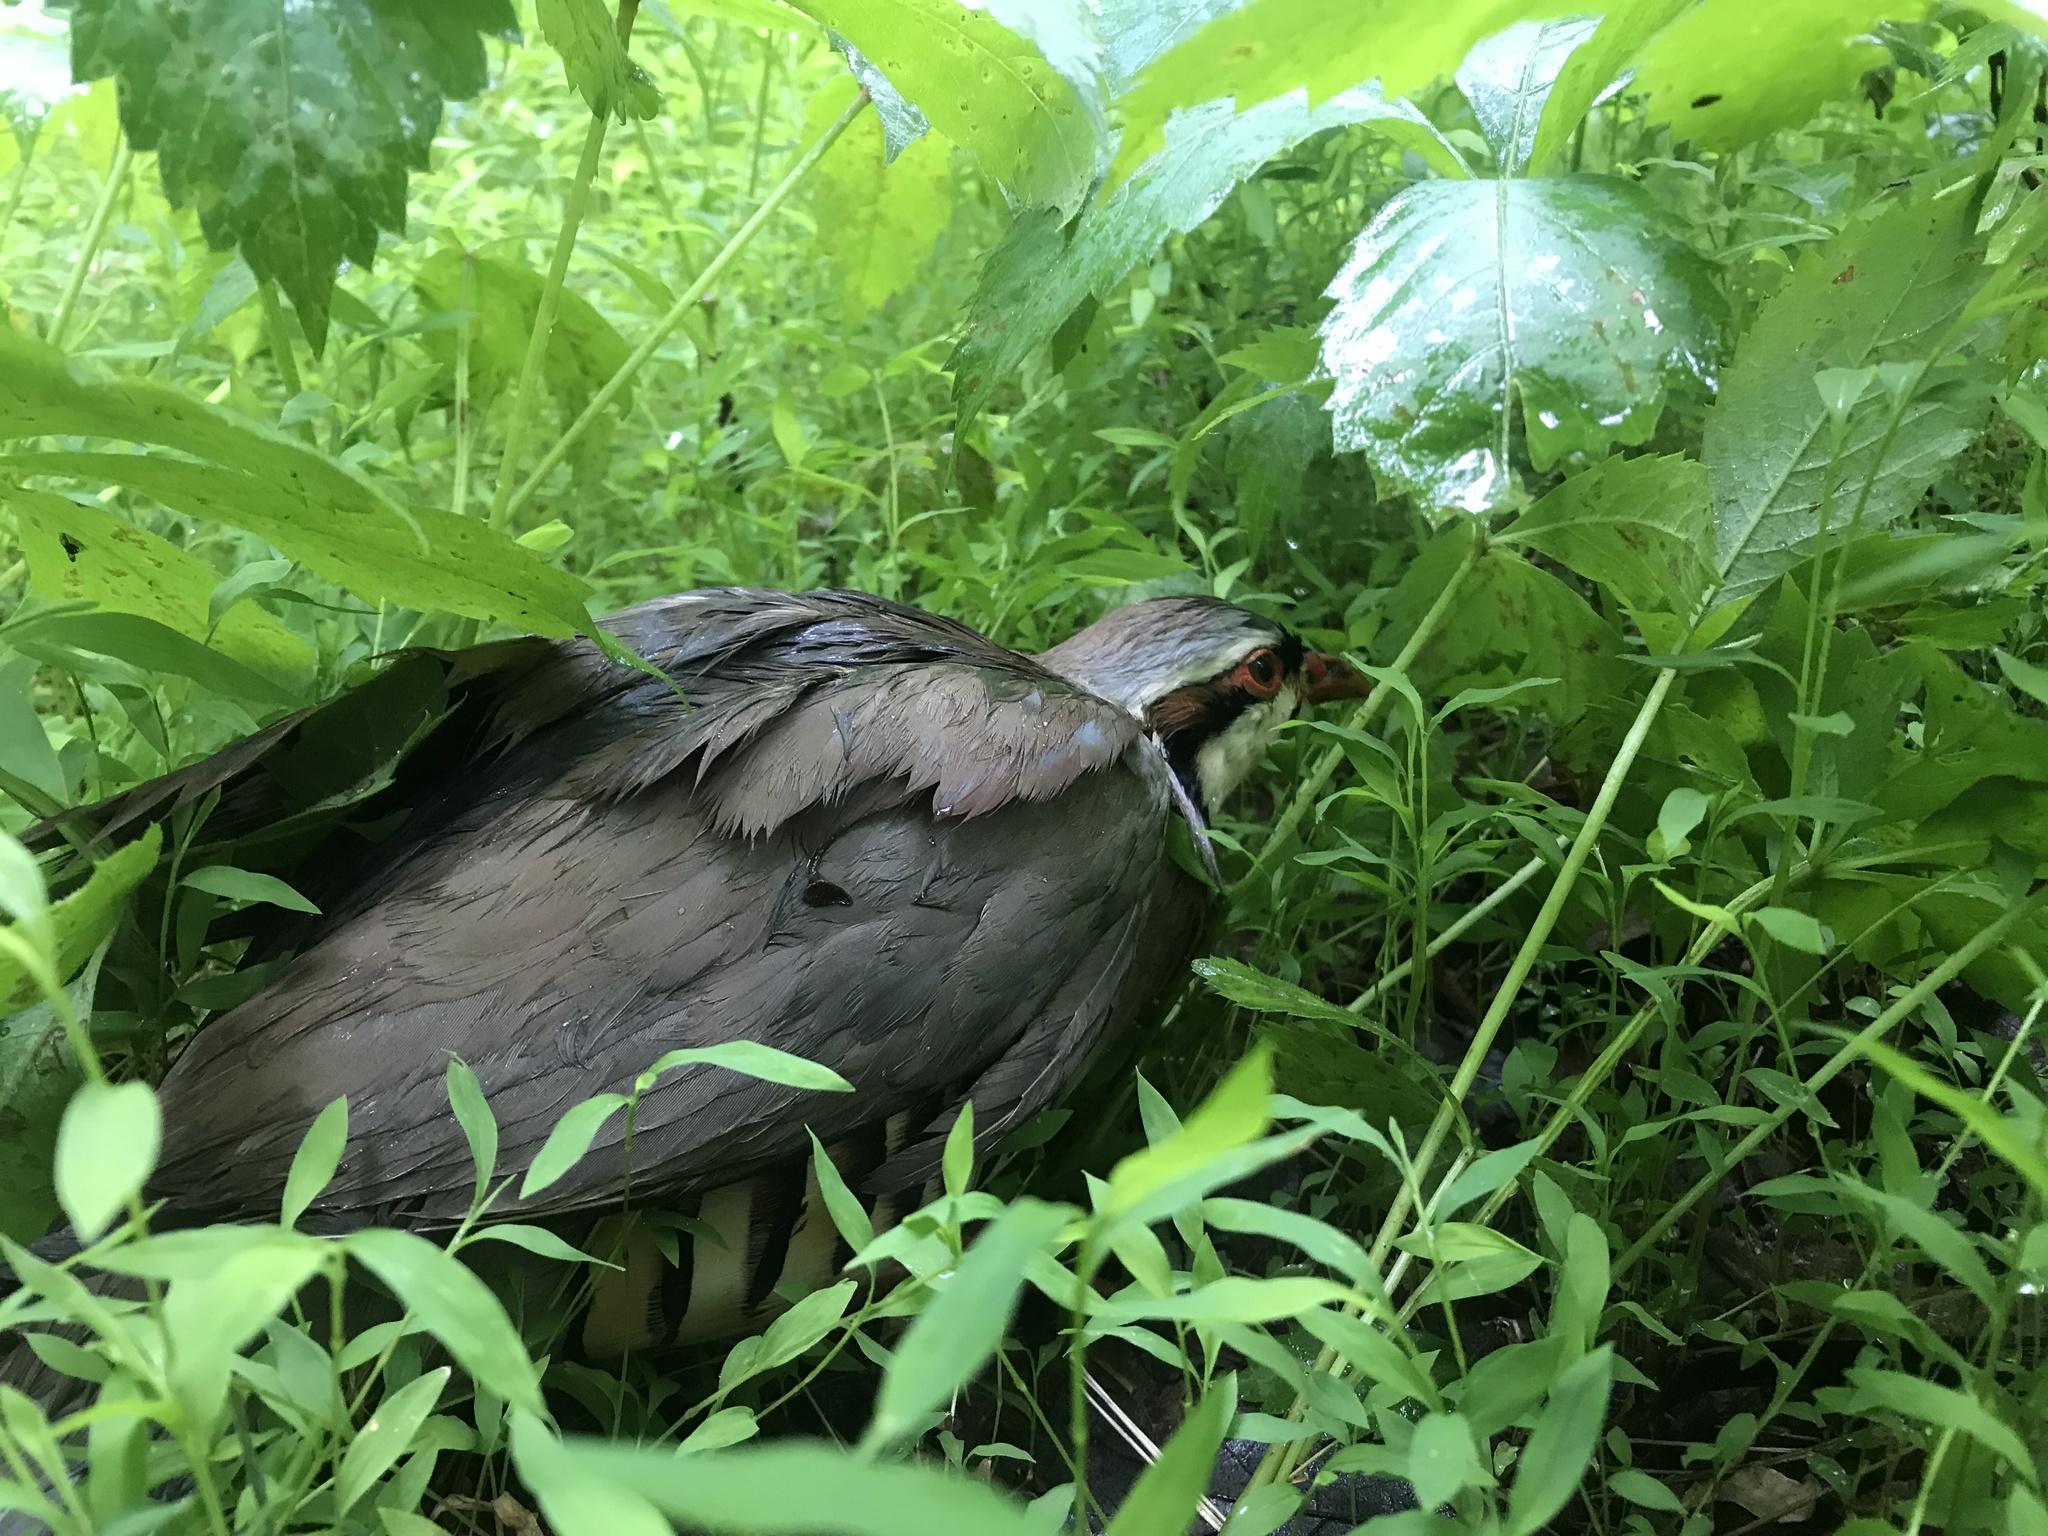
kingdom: Animalia
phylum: Chordata
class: Aves
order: Galliformes
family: Phasianidae
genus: Alectoris
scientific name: Alectoris chukar
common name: Chukar
